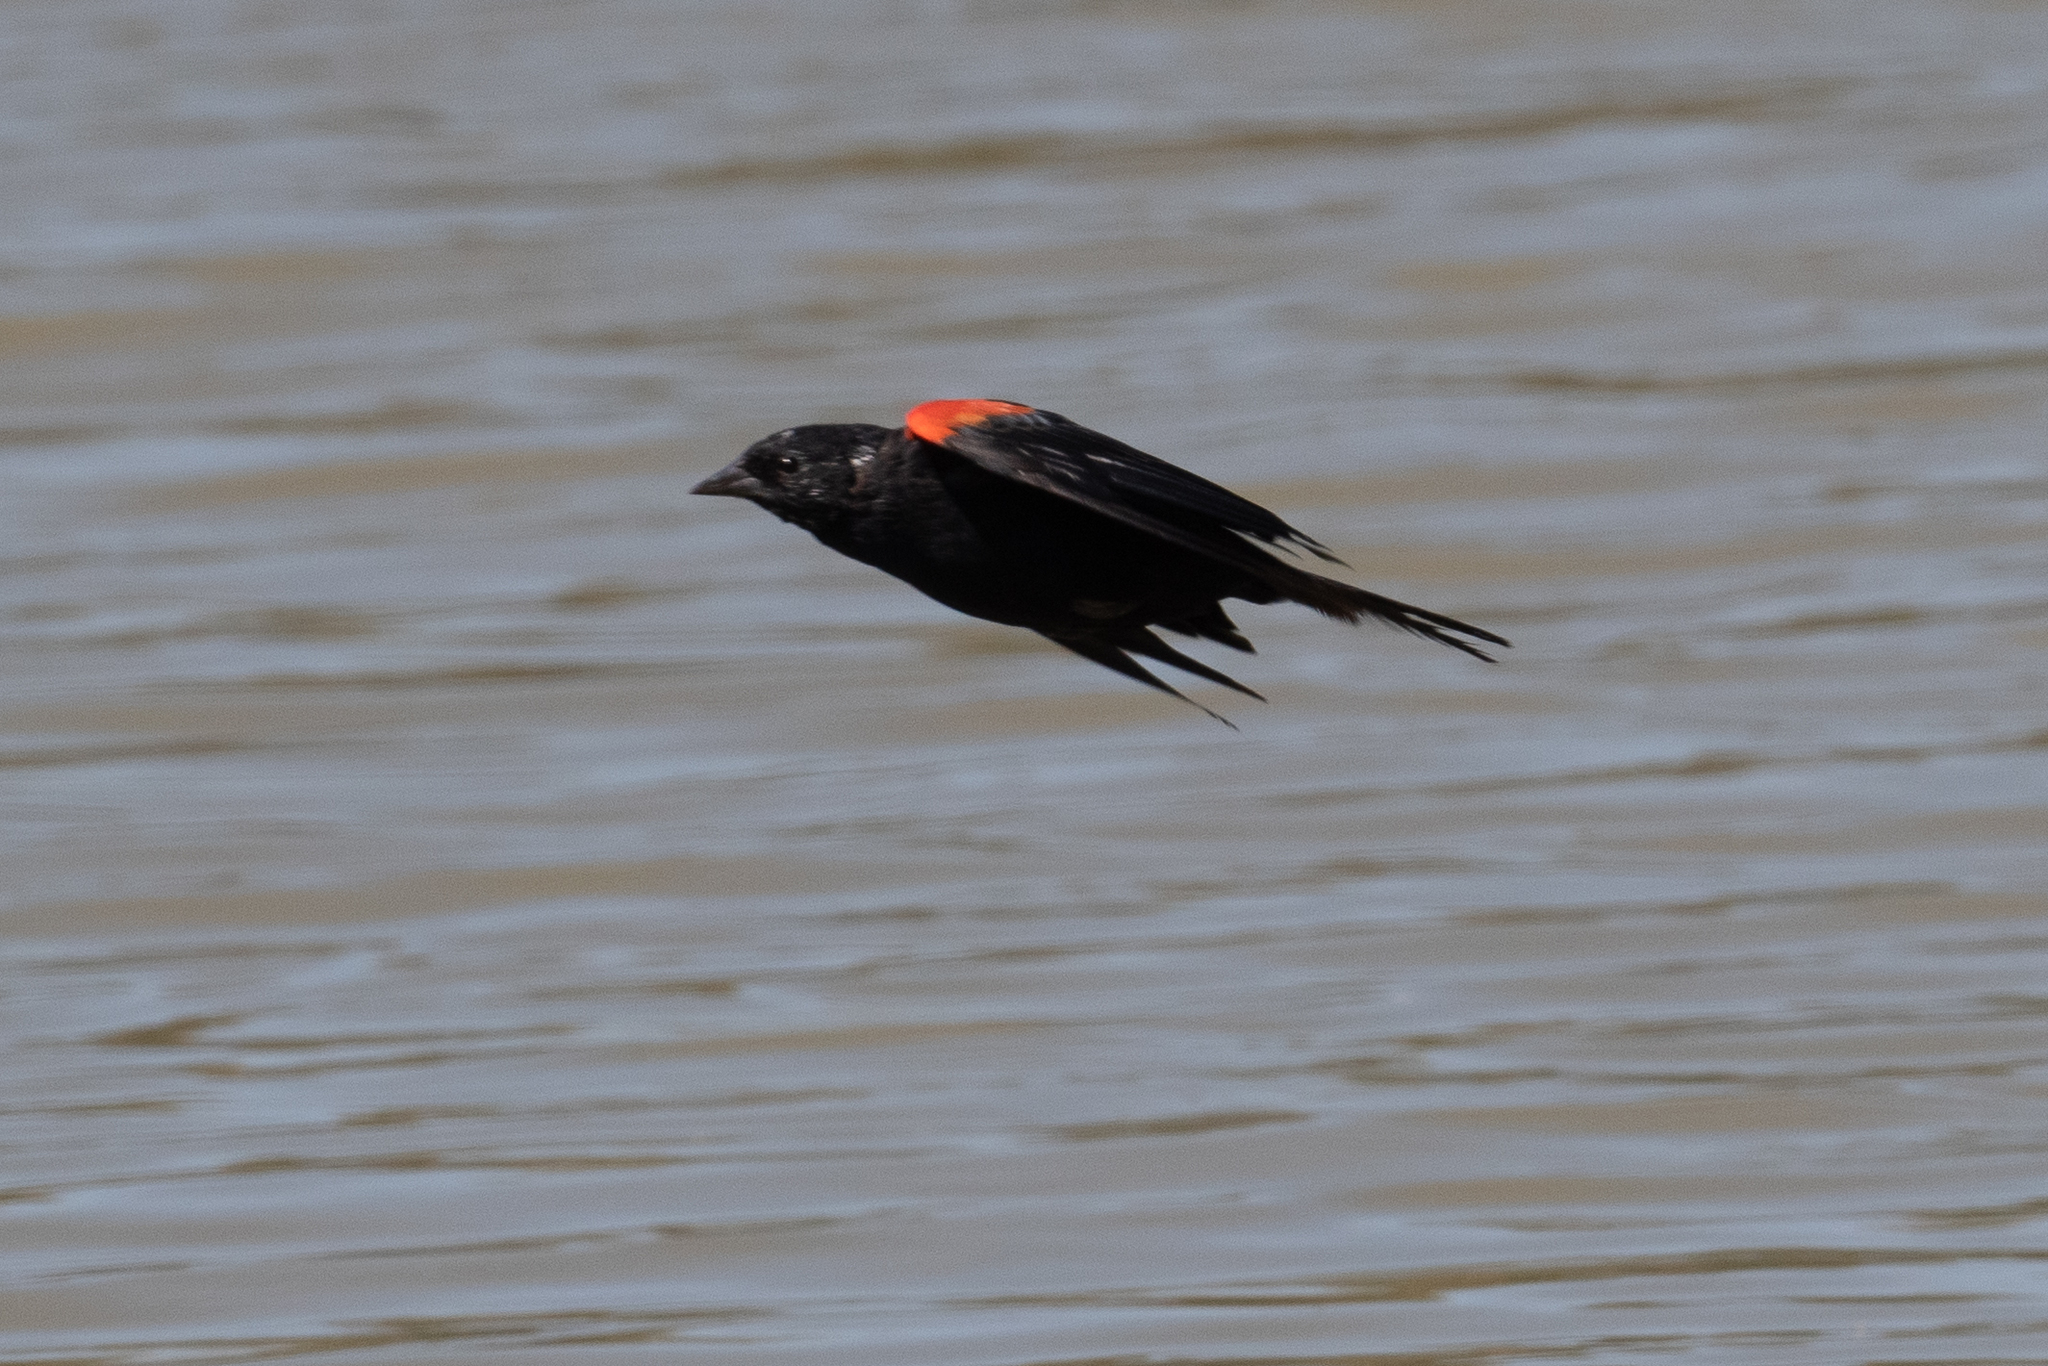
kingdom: Animalia
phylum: Chordata
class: Aves
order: Passeriformes
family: Icteridae
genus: Agelaius
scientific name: Agelaius phoeniceus
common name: Red-winged blackbird
